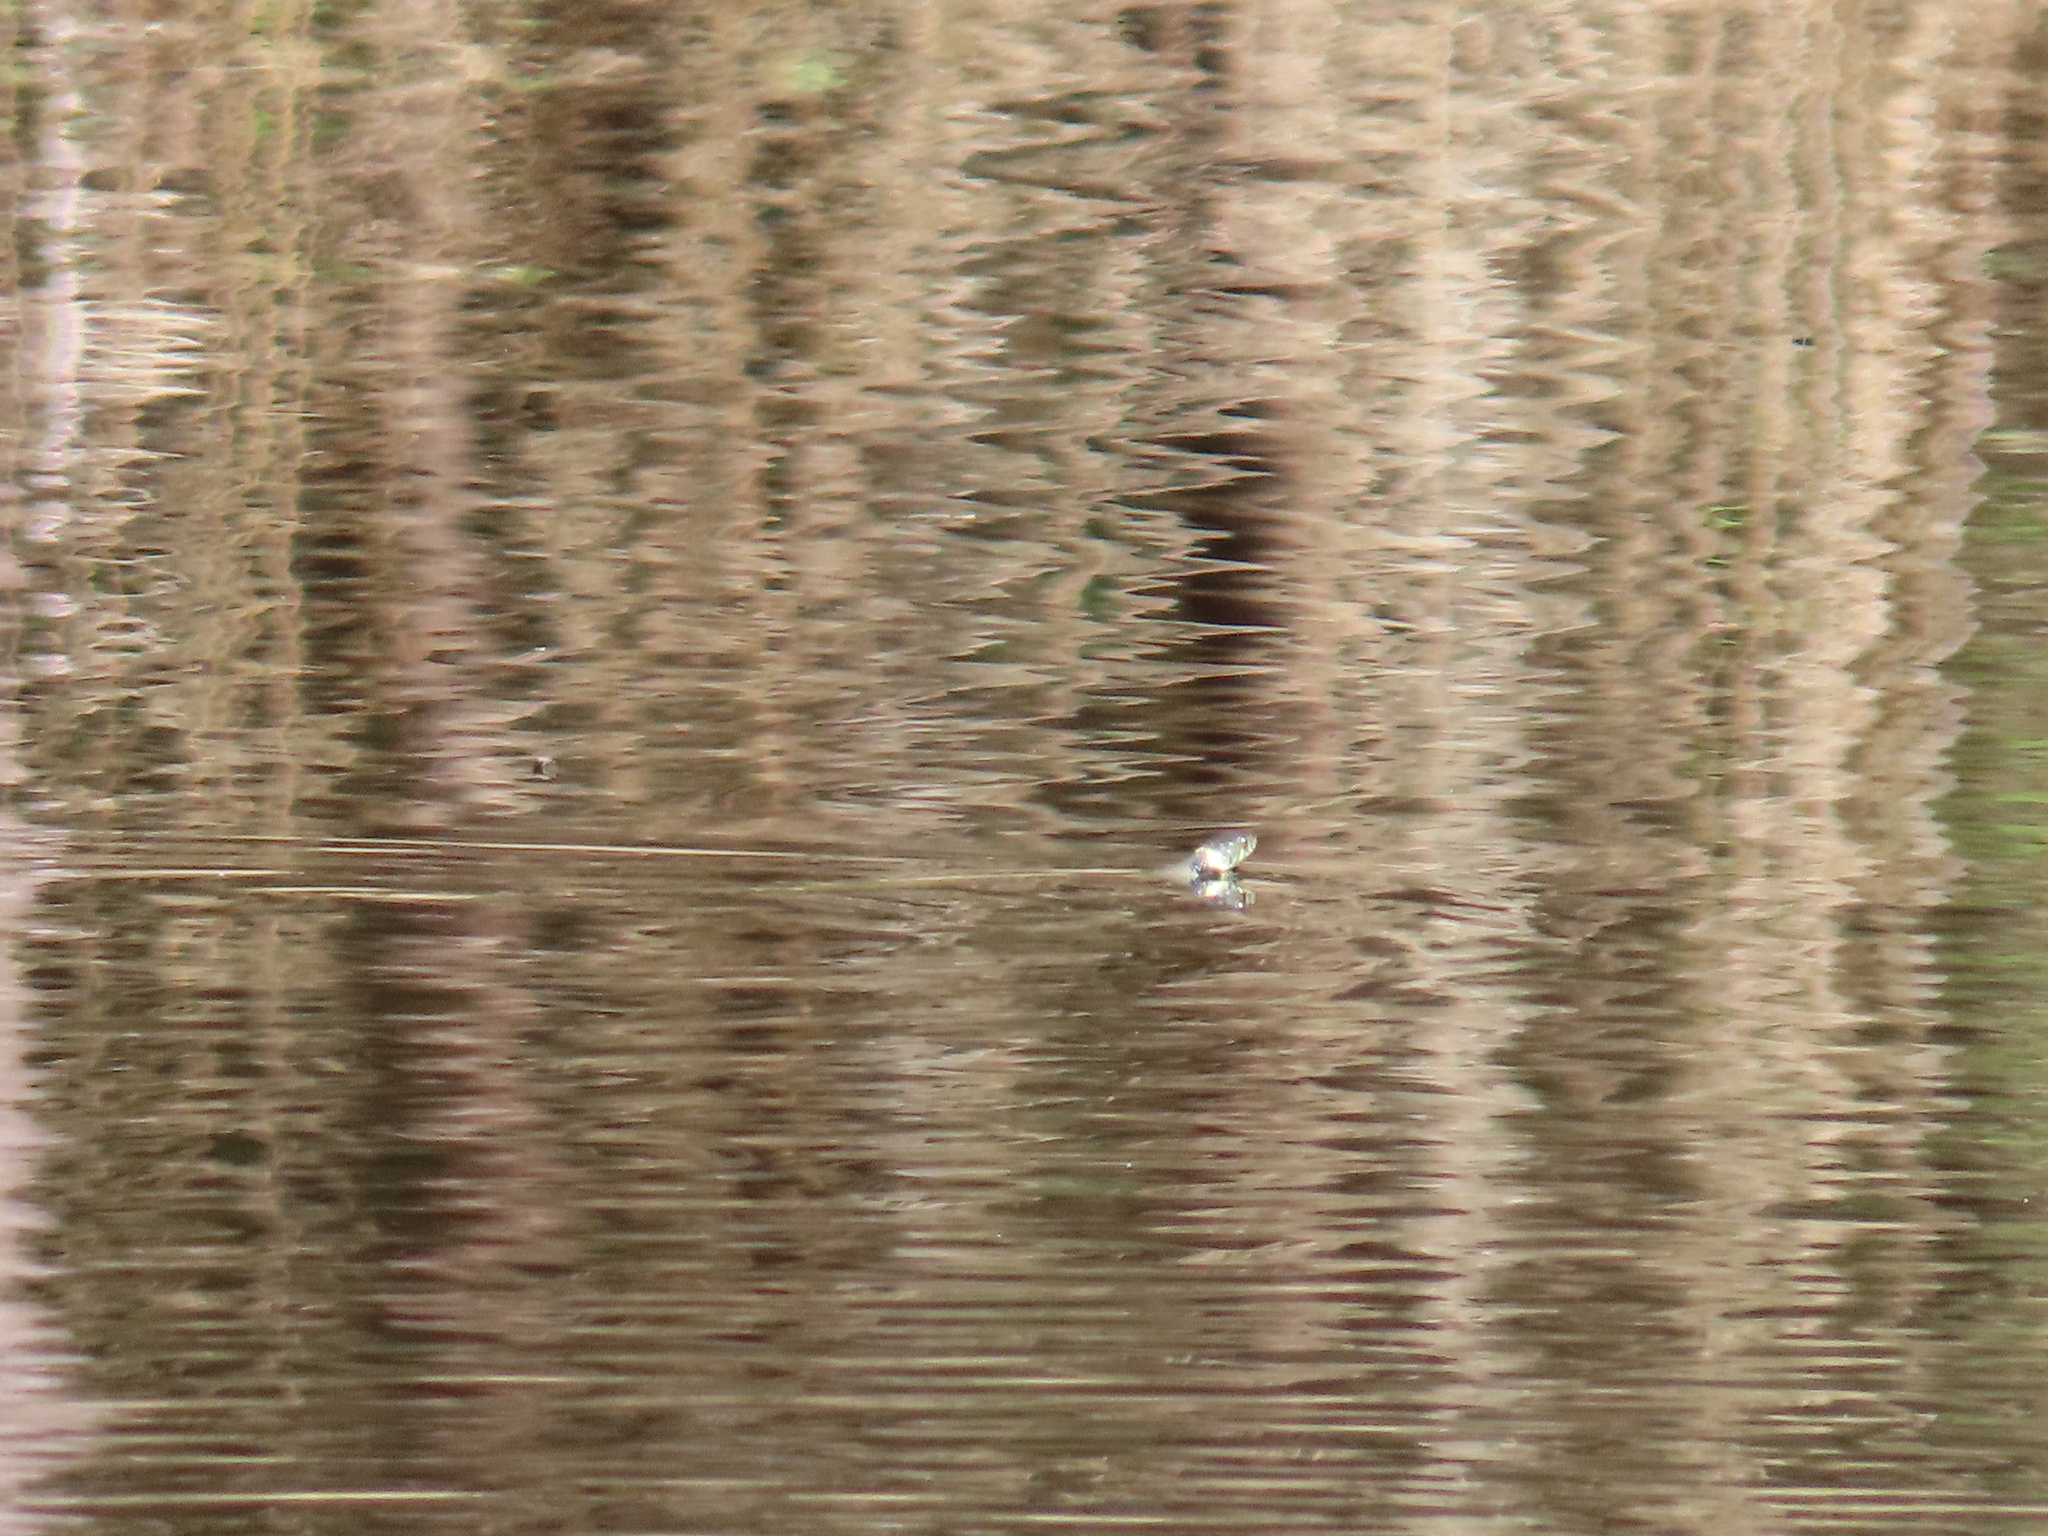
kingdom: Animalia
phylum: Chordata
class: Squamata
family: Colubridae
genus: Natrix
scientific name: Natrix helvetica
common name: Banded grass snake
